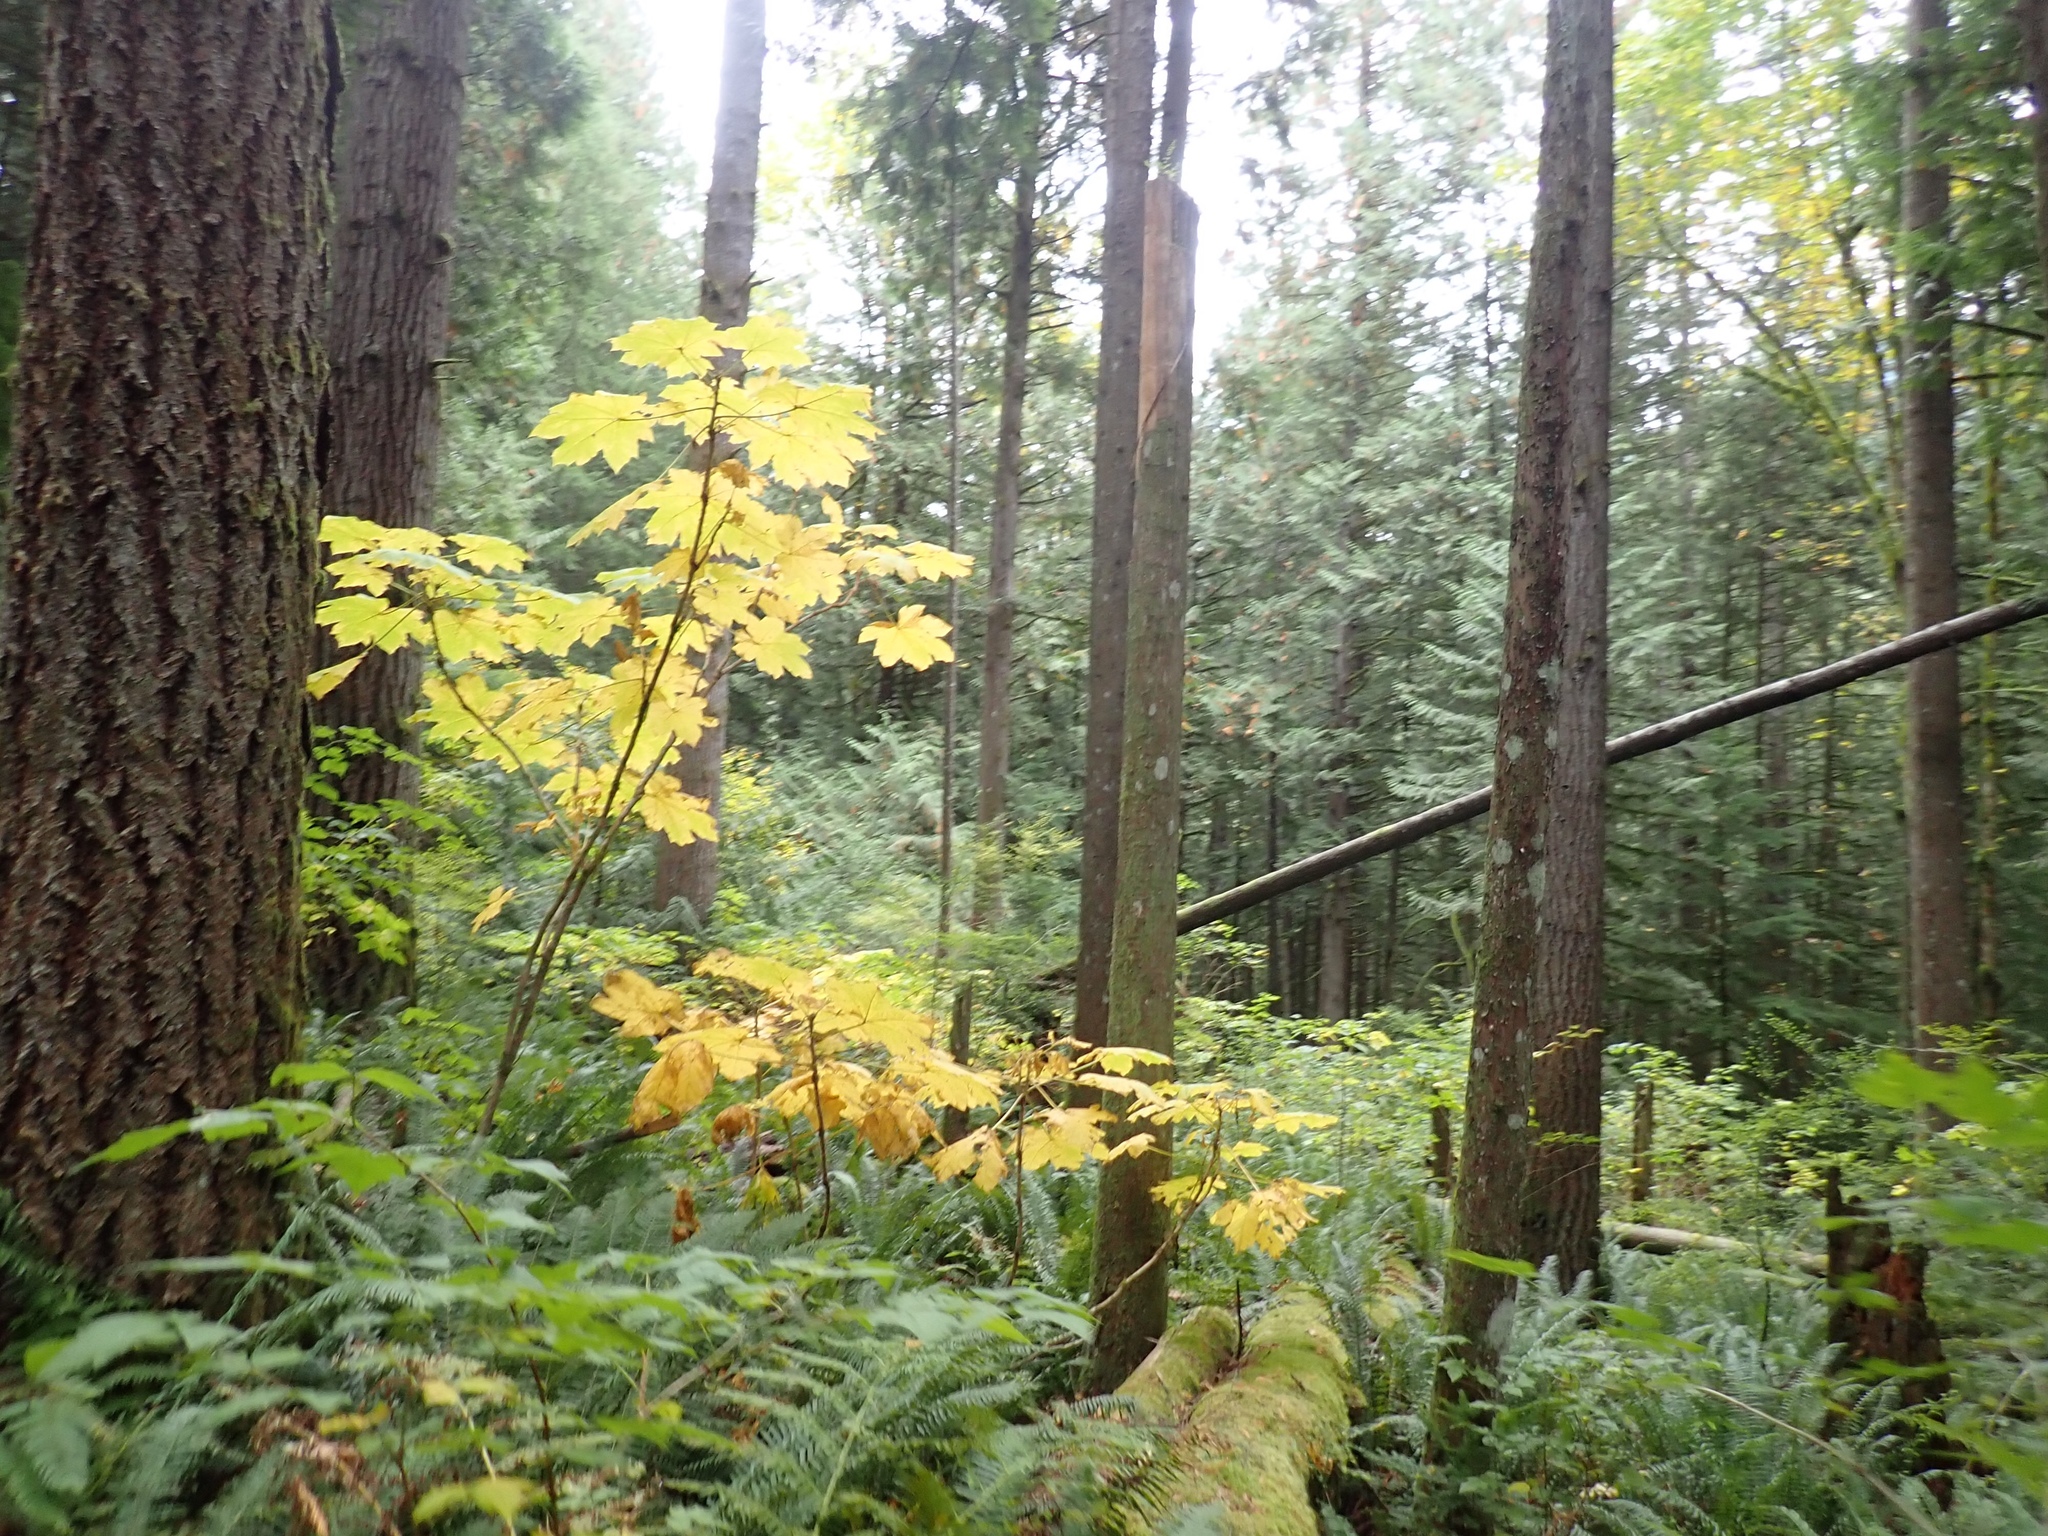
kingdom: Plantae
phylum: Tracheophyta
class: Magnoliopsida
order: Apiales
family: Araliaceae
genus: Oplopanax
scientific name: Oplopanax horridus
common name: Devil's walking-stick
